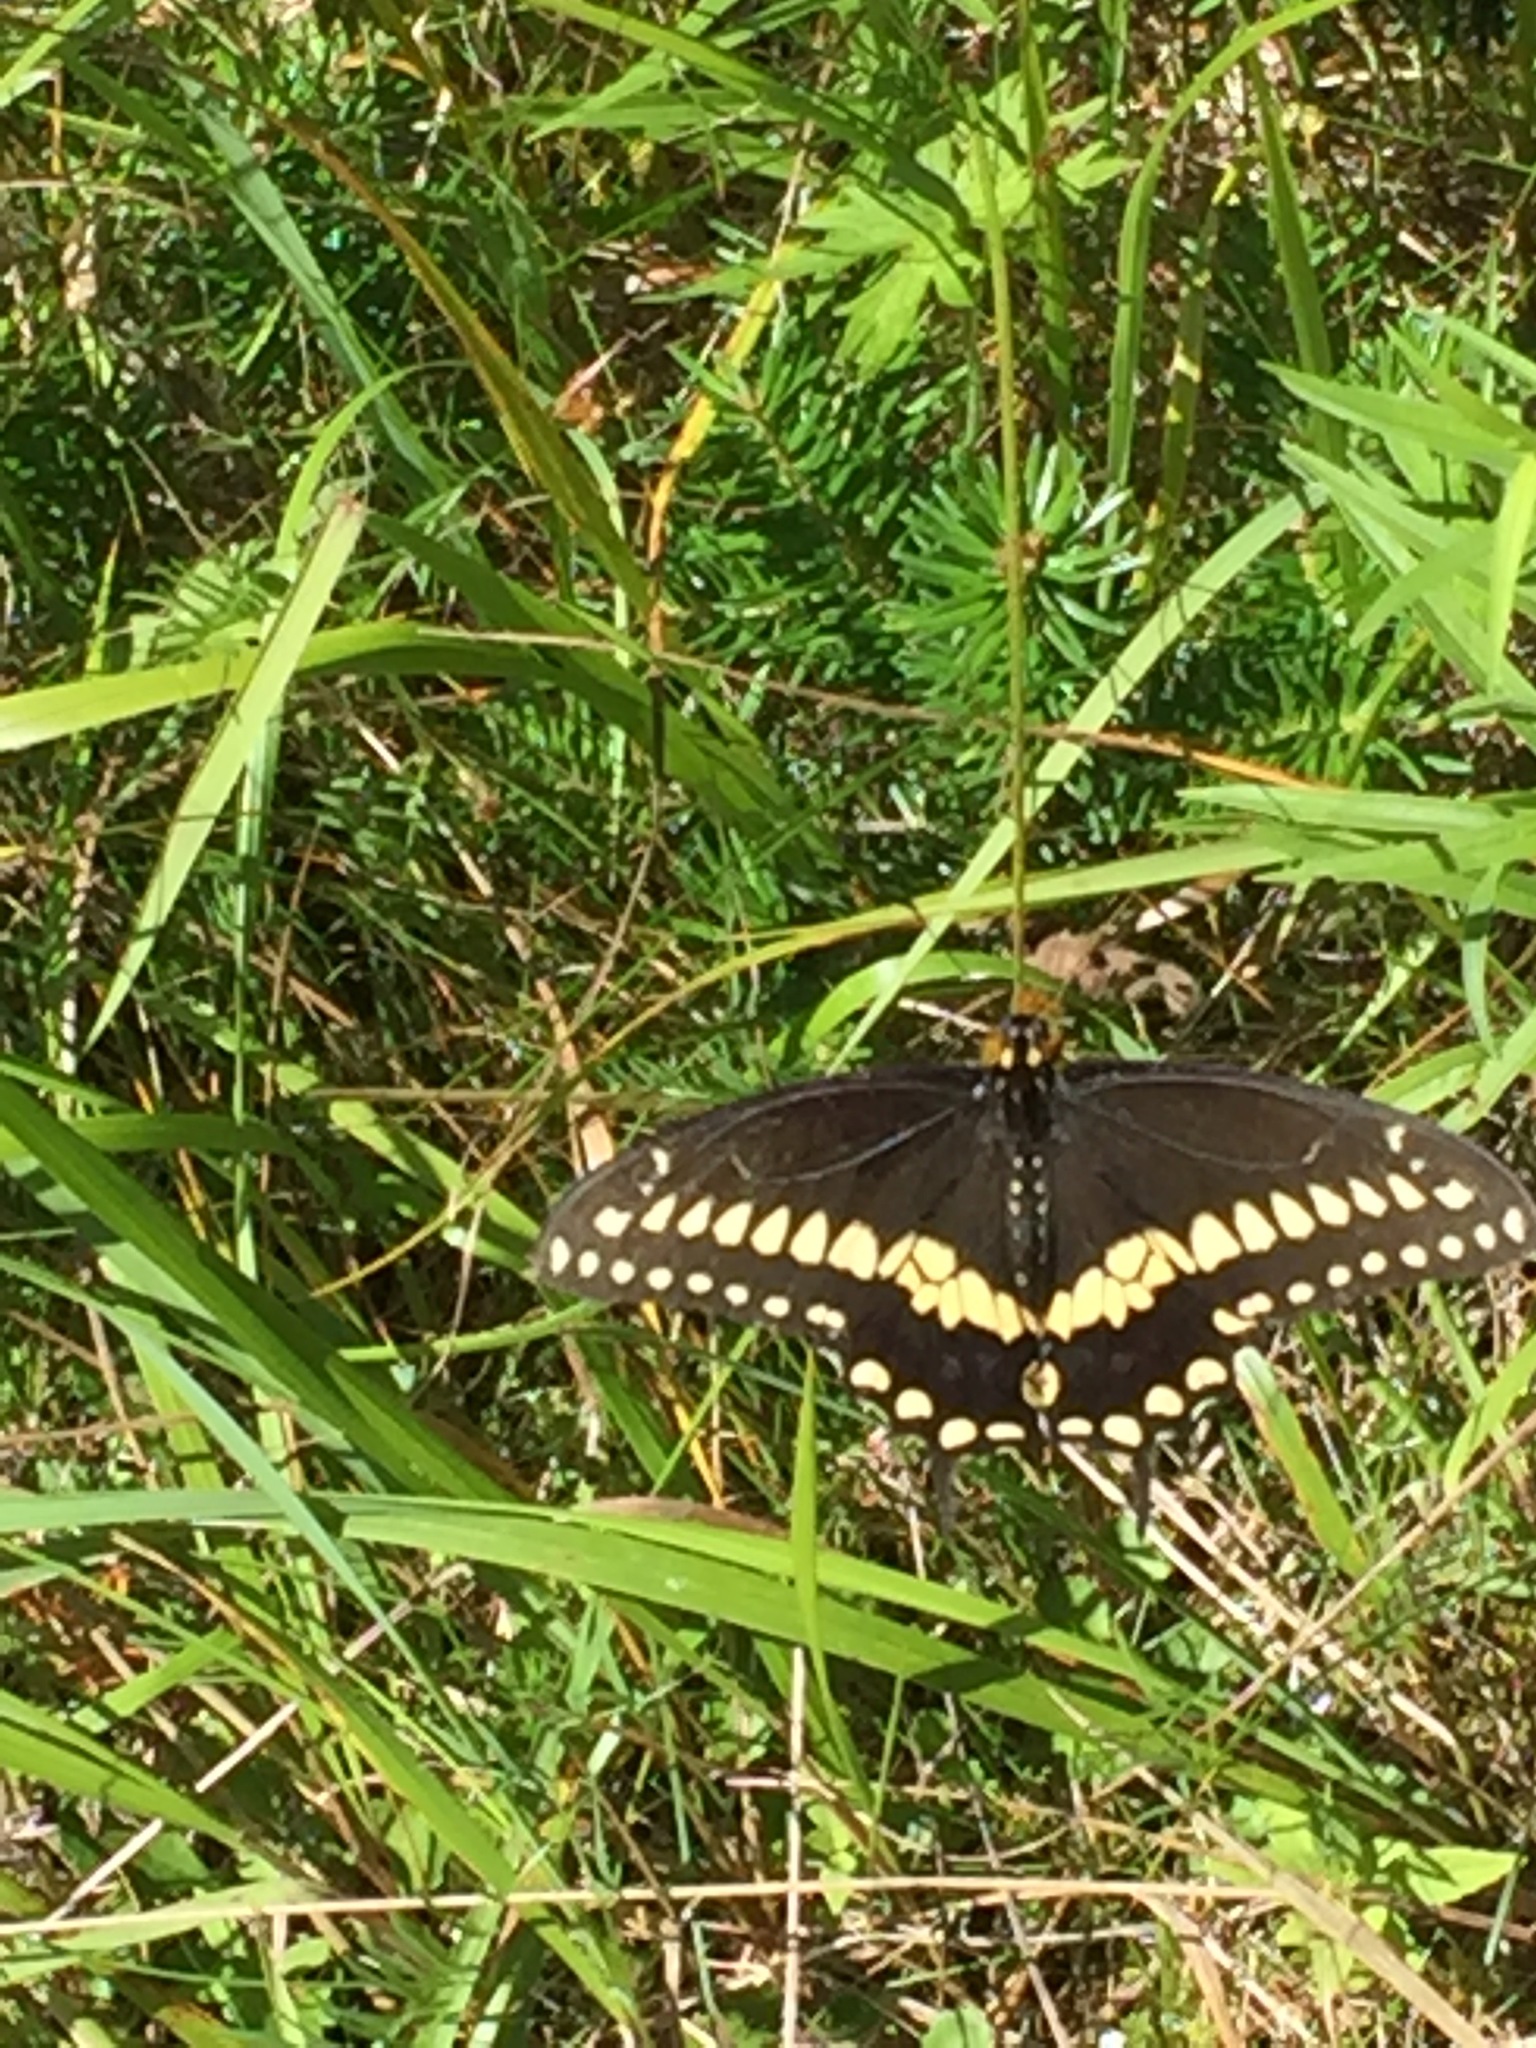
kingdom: Animalia
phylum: Arthropoda
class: Insecta
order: Lepidoptera
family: Papilionidae
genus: Papilio
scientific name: Papilio polyxenes
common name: Black swallowtail
